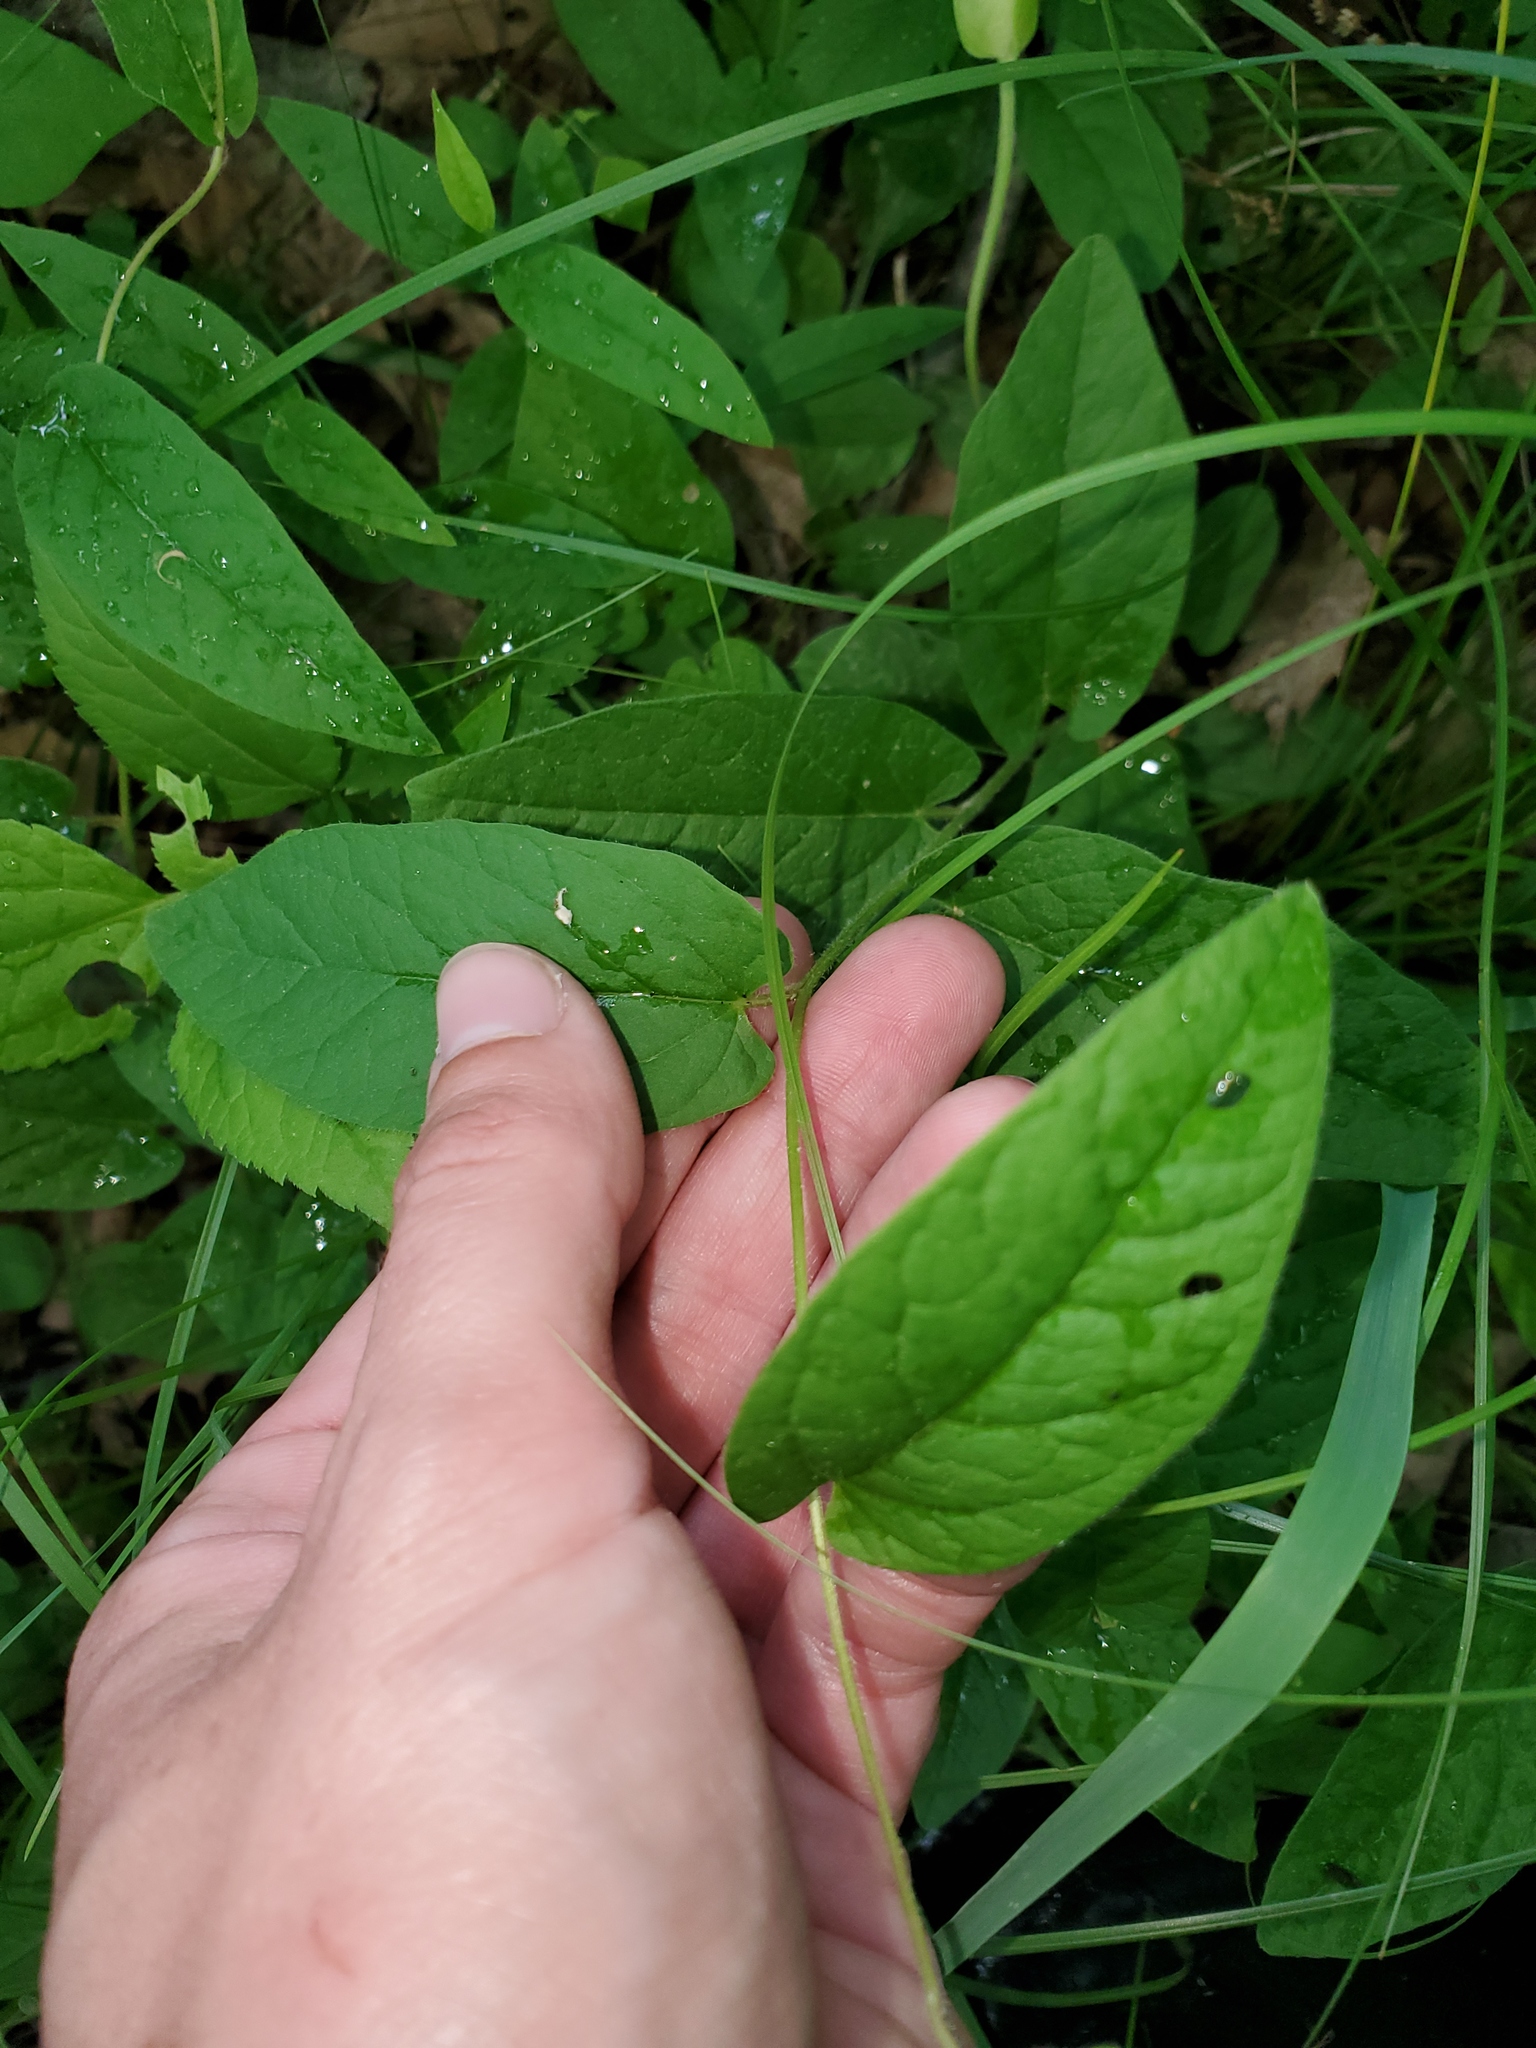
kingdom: Plantae
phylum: Tracheophyta
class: Magnoliopsida
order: Solanales
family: Convolvulaceae
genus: Calystegia
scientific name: Calystegia spithamaea
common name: Dwarf bindweed
